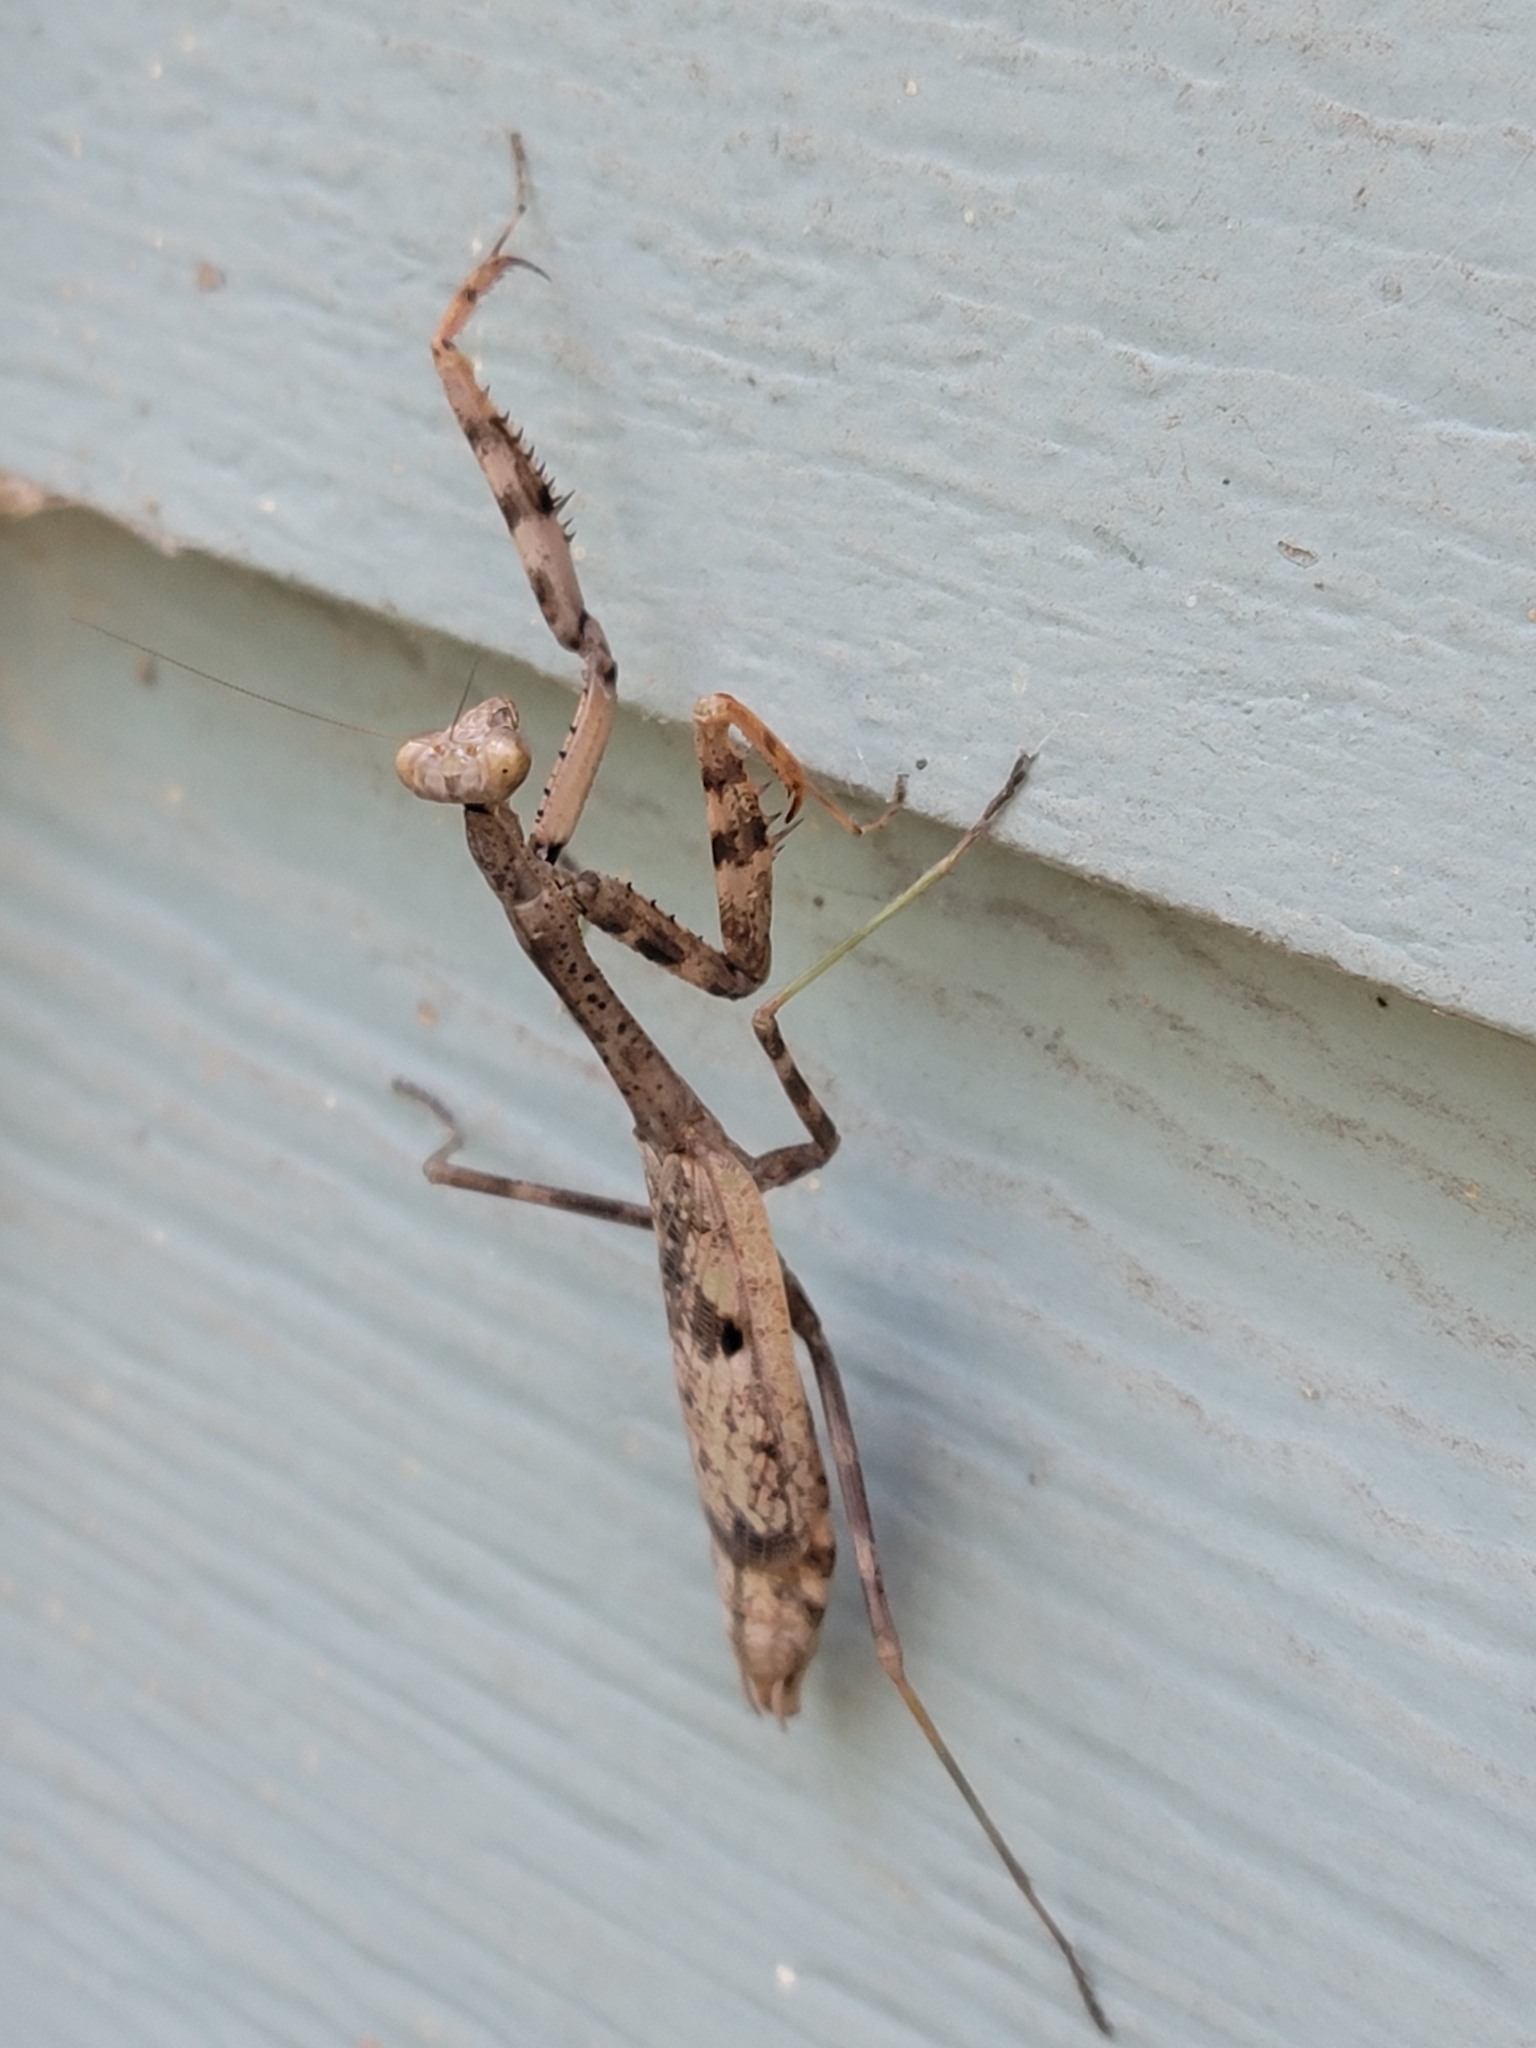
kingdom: Animalia
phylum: Arthropoda
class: Insecta
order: Mantodea
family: Mantidae
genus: Stagmomantis
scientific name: Stagmomantis carolina
